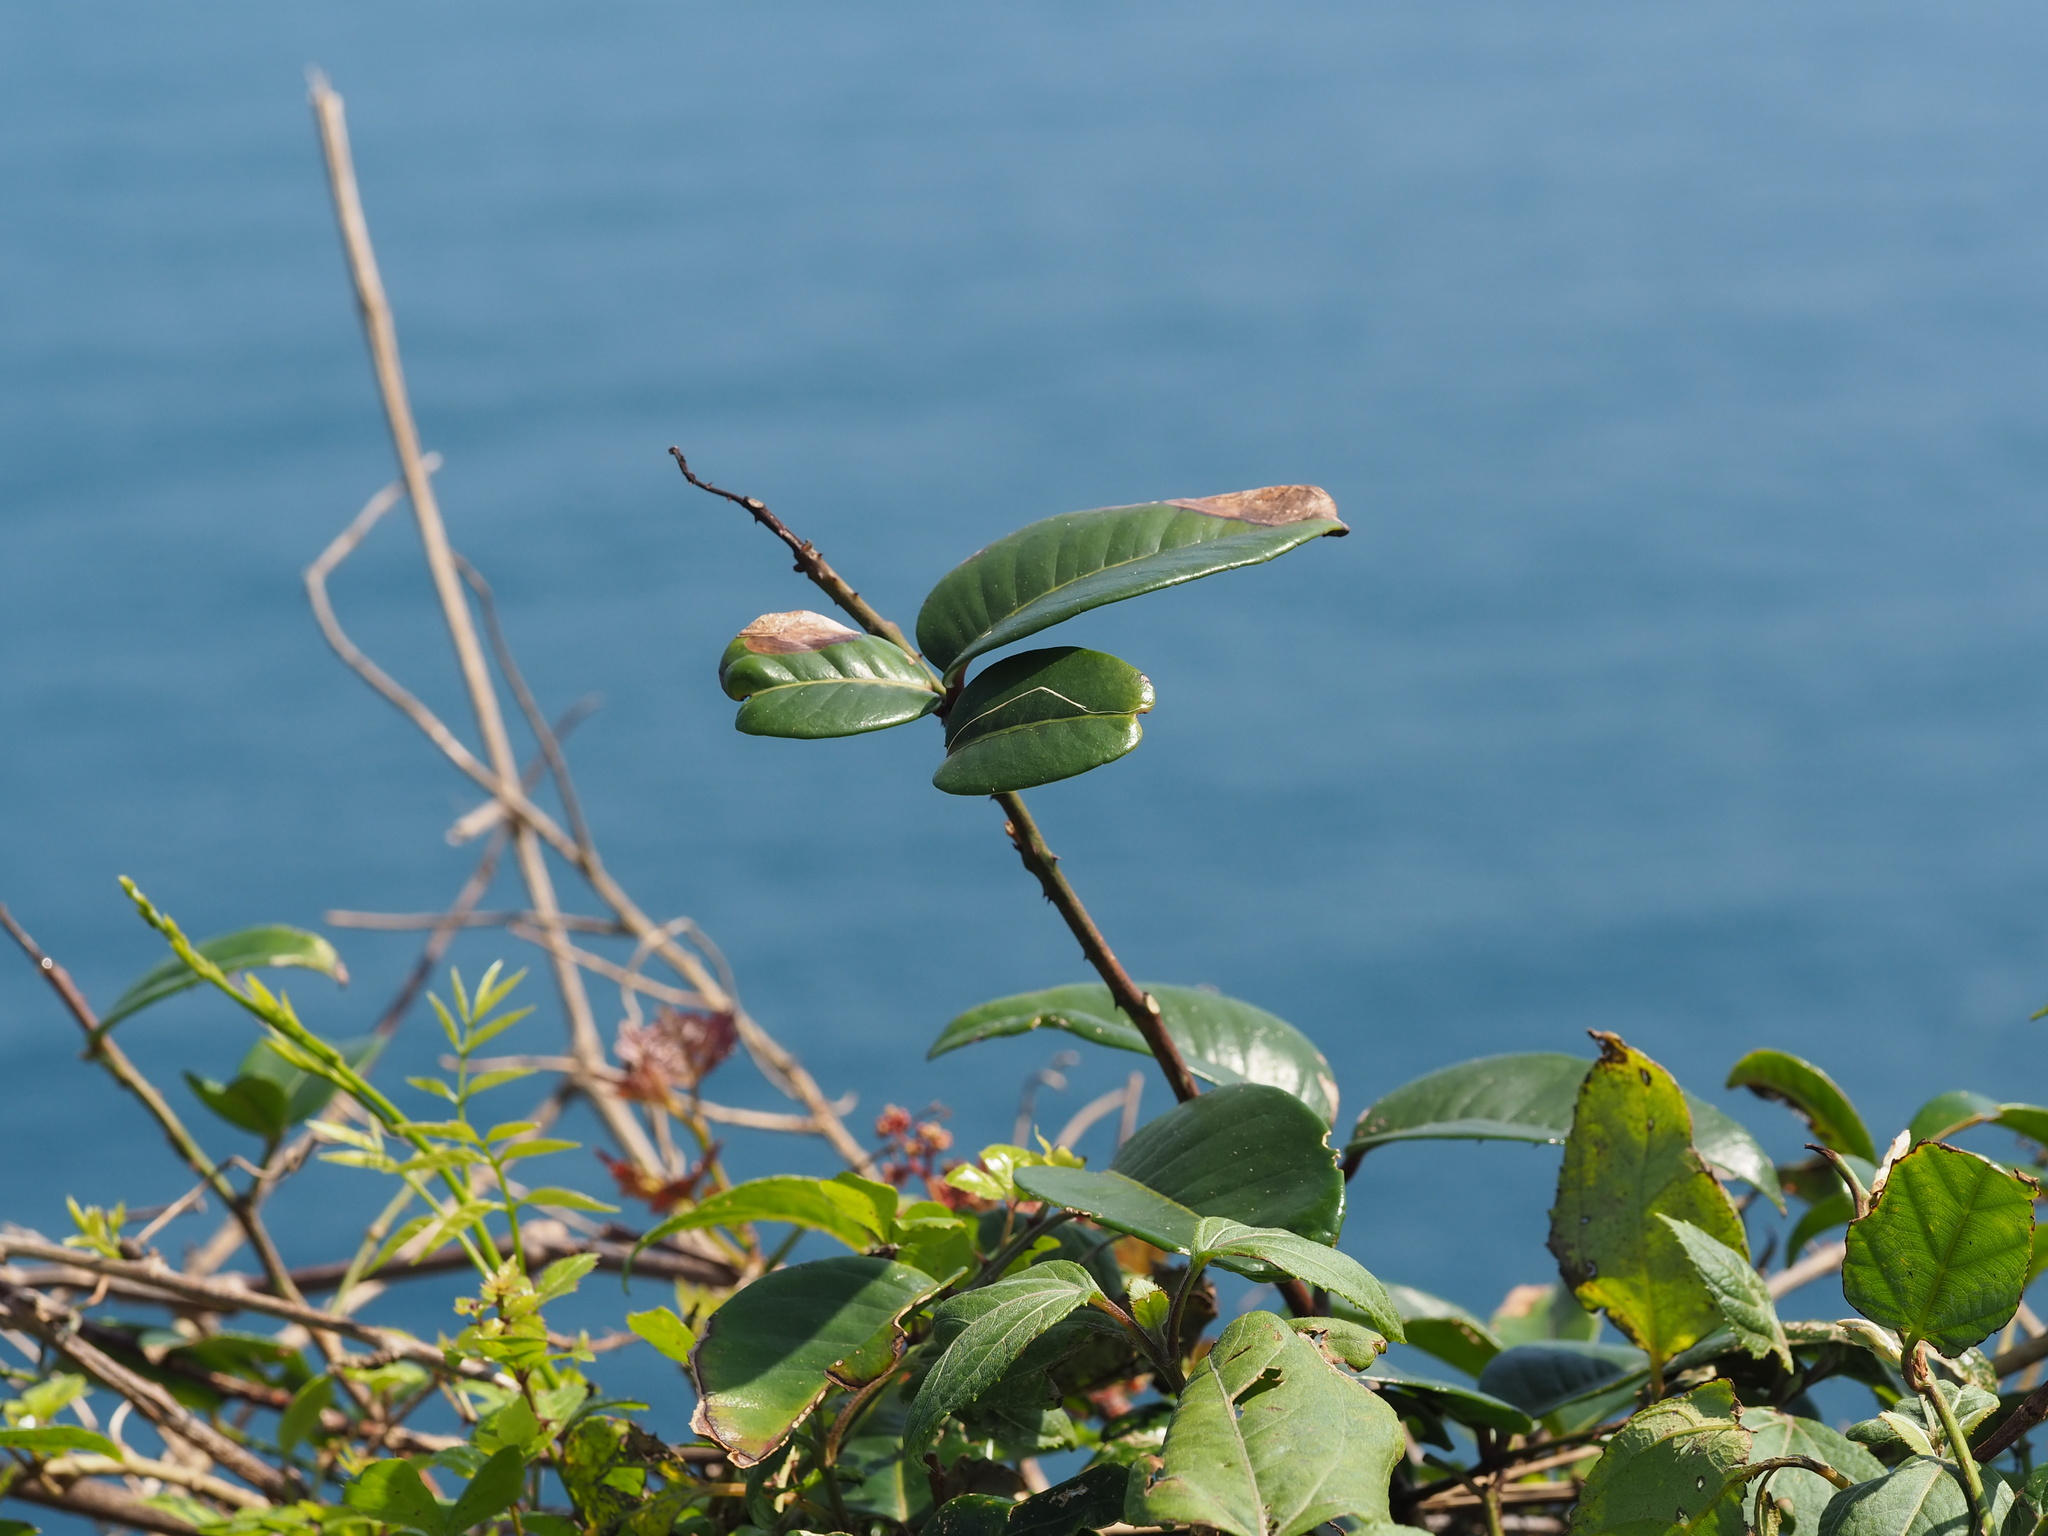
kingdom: Plantae
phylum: Tracheophyta
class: Magnoliopsida
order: Sapindales
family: Rutaceae
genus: Zanthoxylum
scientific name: Zanthoxylum nitidum
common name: Shiny-leaf prickly-ash
